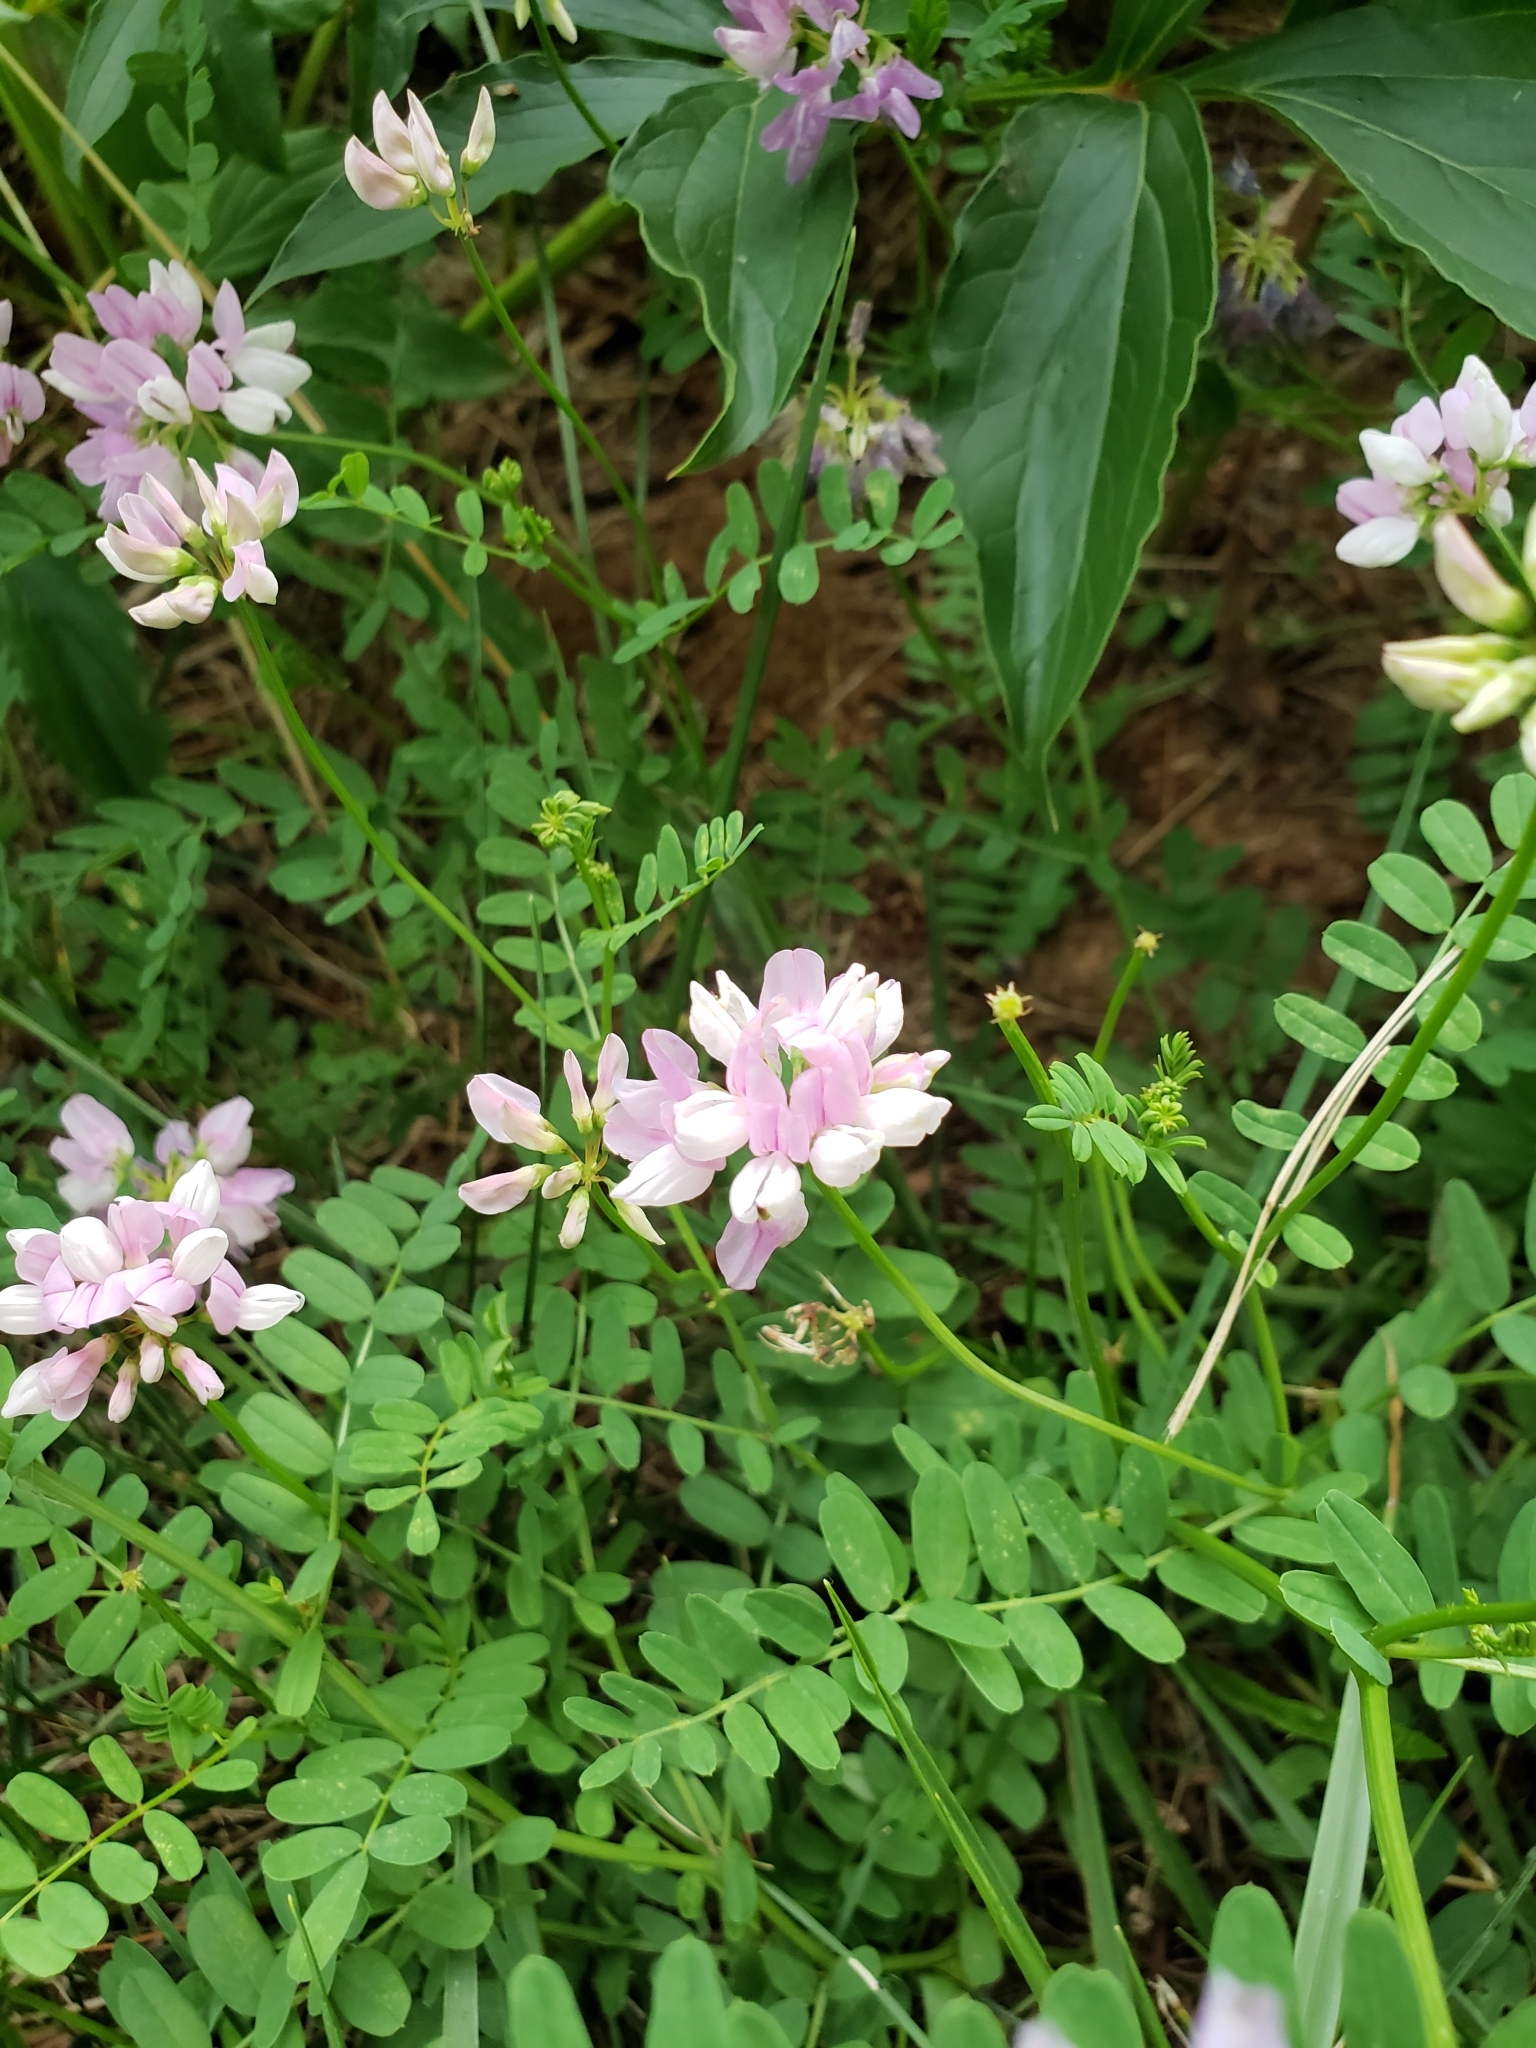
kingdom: Plantae
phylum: Tracheophyta
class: Magnoliopsida
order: Fabales
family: Fabaceae
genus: Coronilla
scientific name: Coronilla varia
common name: Crownvetch
